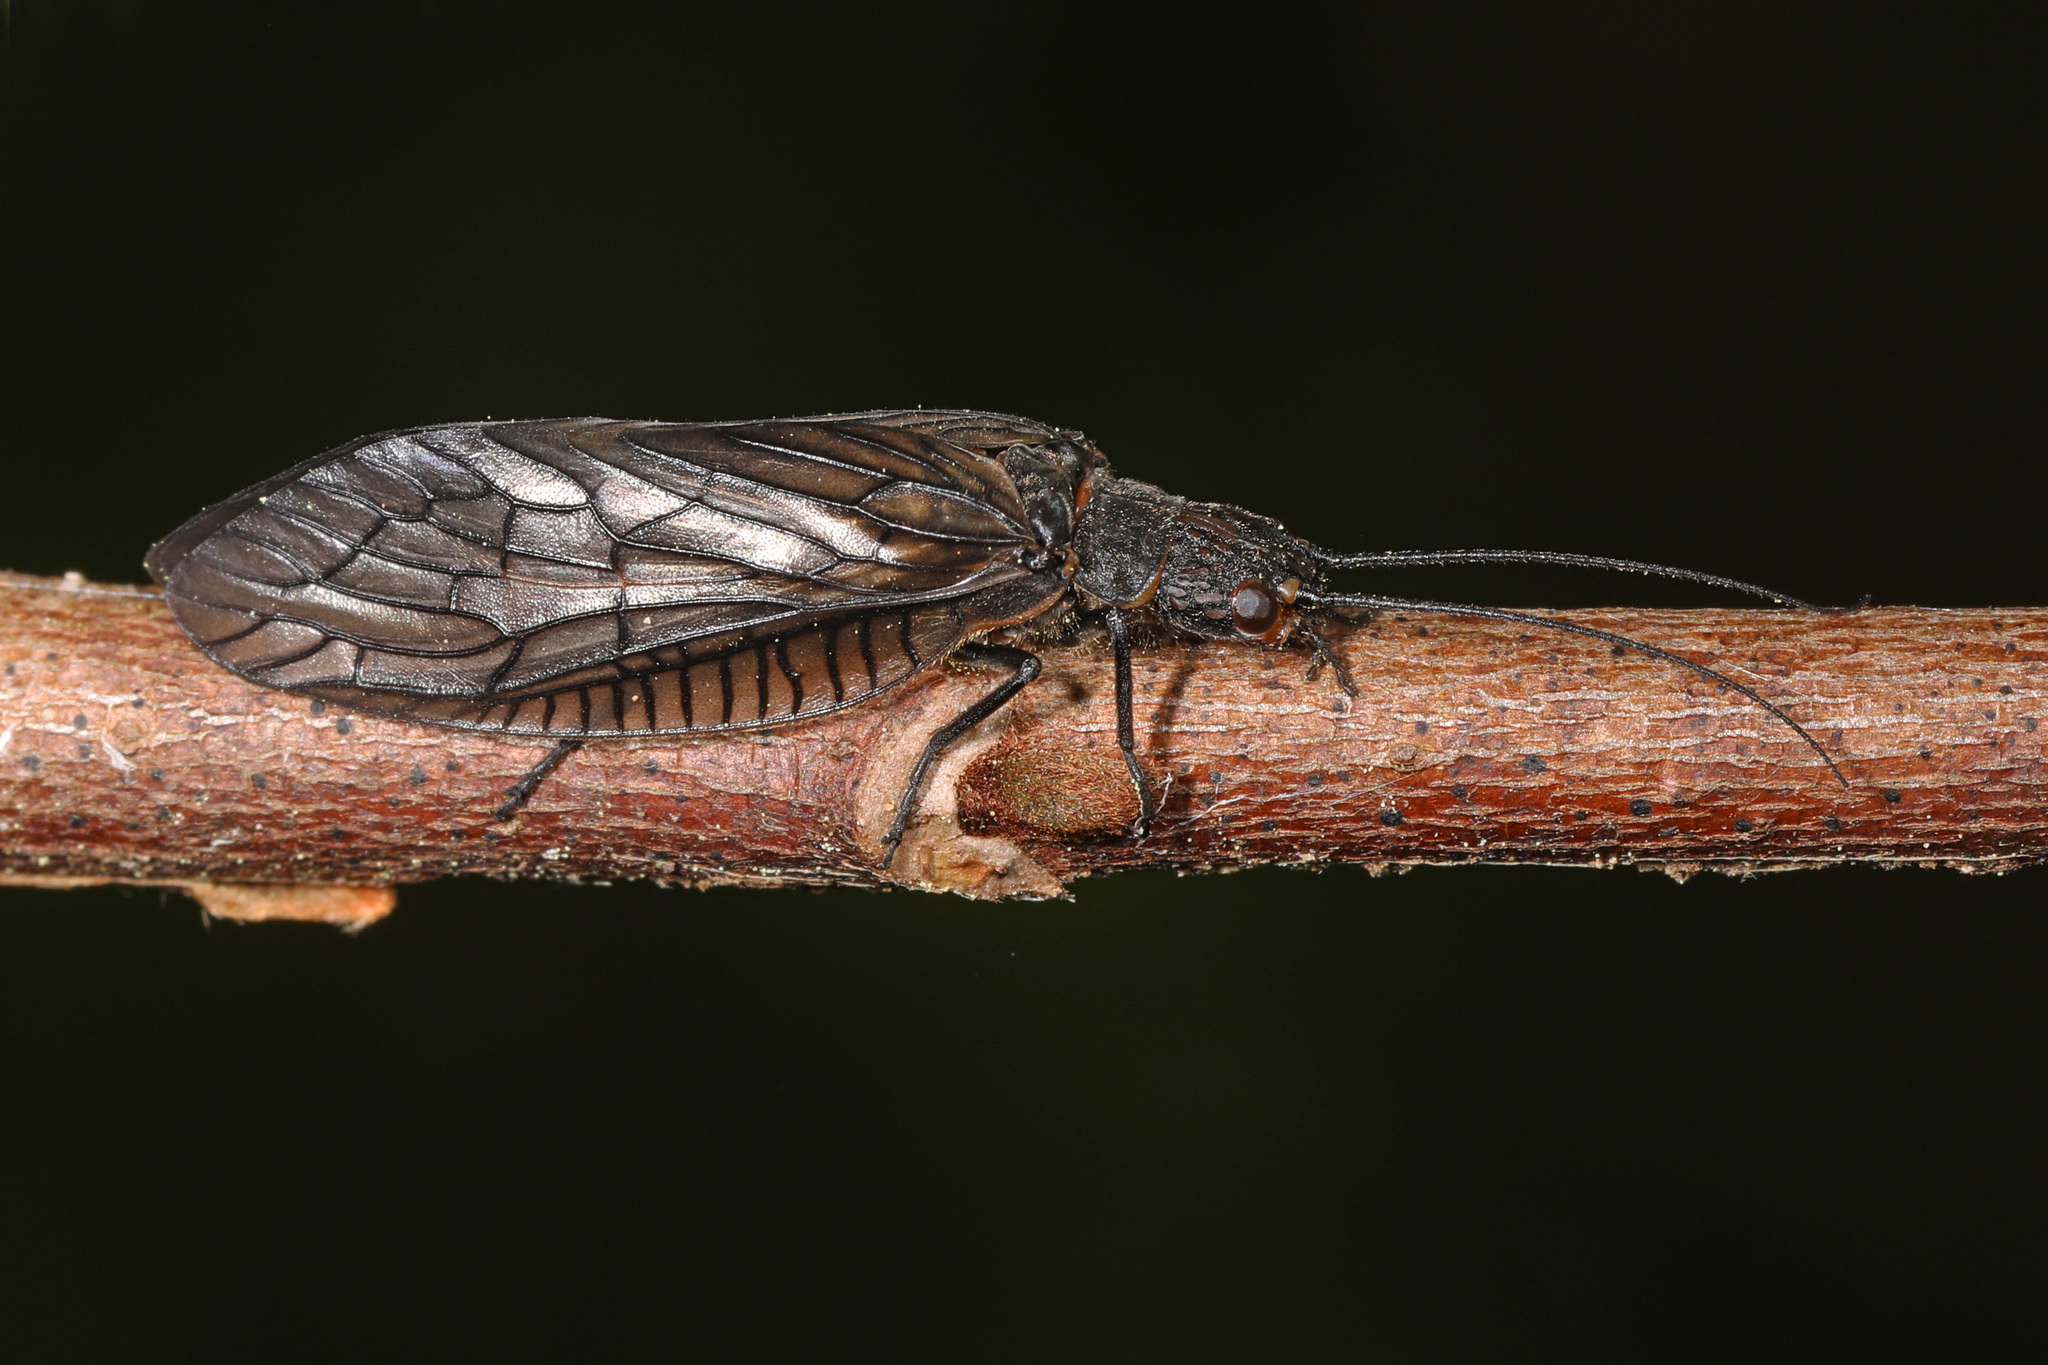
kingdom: Animalia
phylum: Arthropoda
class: Insecta
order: Megaloptera
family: Sialidae
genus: Sialis
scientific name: Sialis
